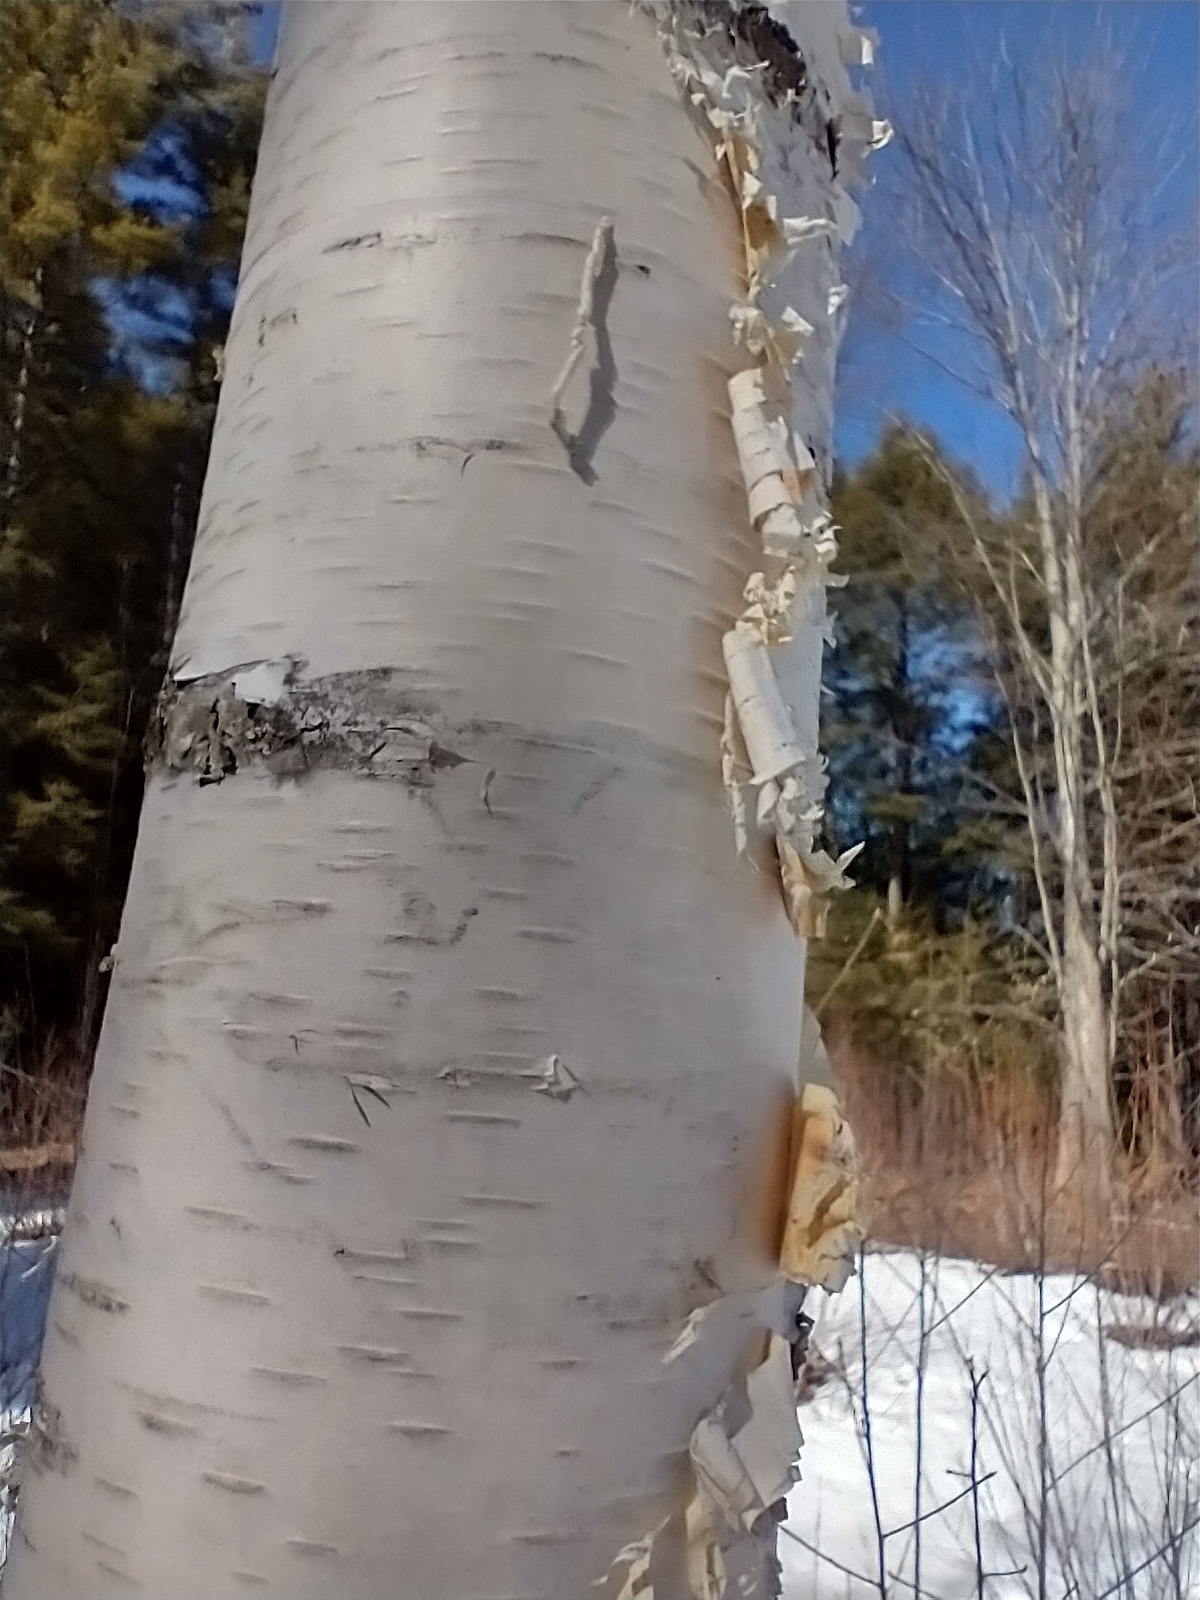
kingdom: Plantae
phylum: Tracheophyta
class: Magnoliopsida
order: Fagales
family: Betulaceae
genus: Betula
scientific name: Betula papyrifera
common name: Paper birch
